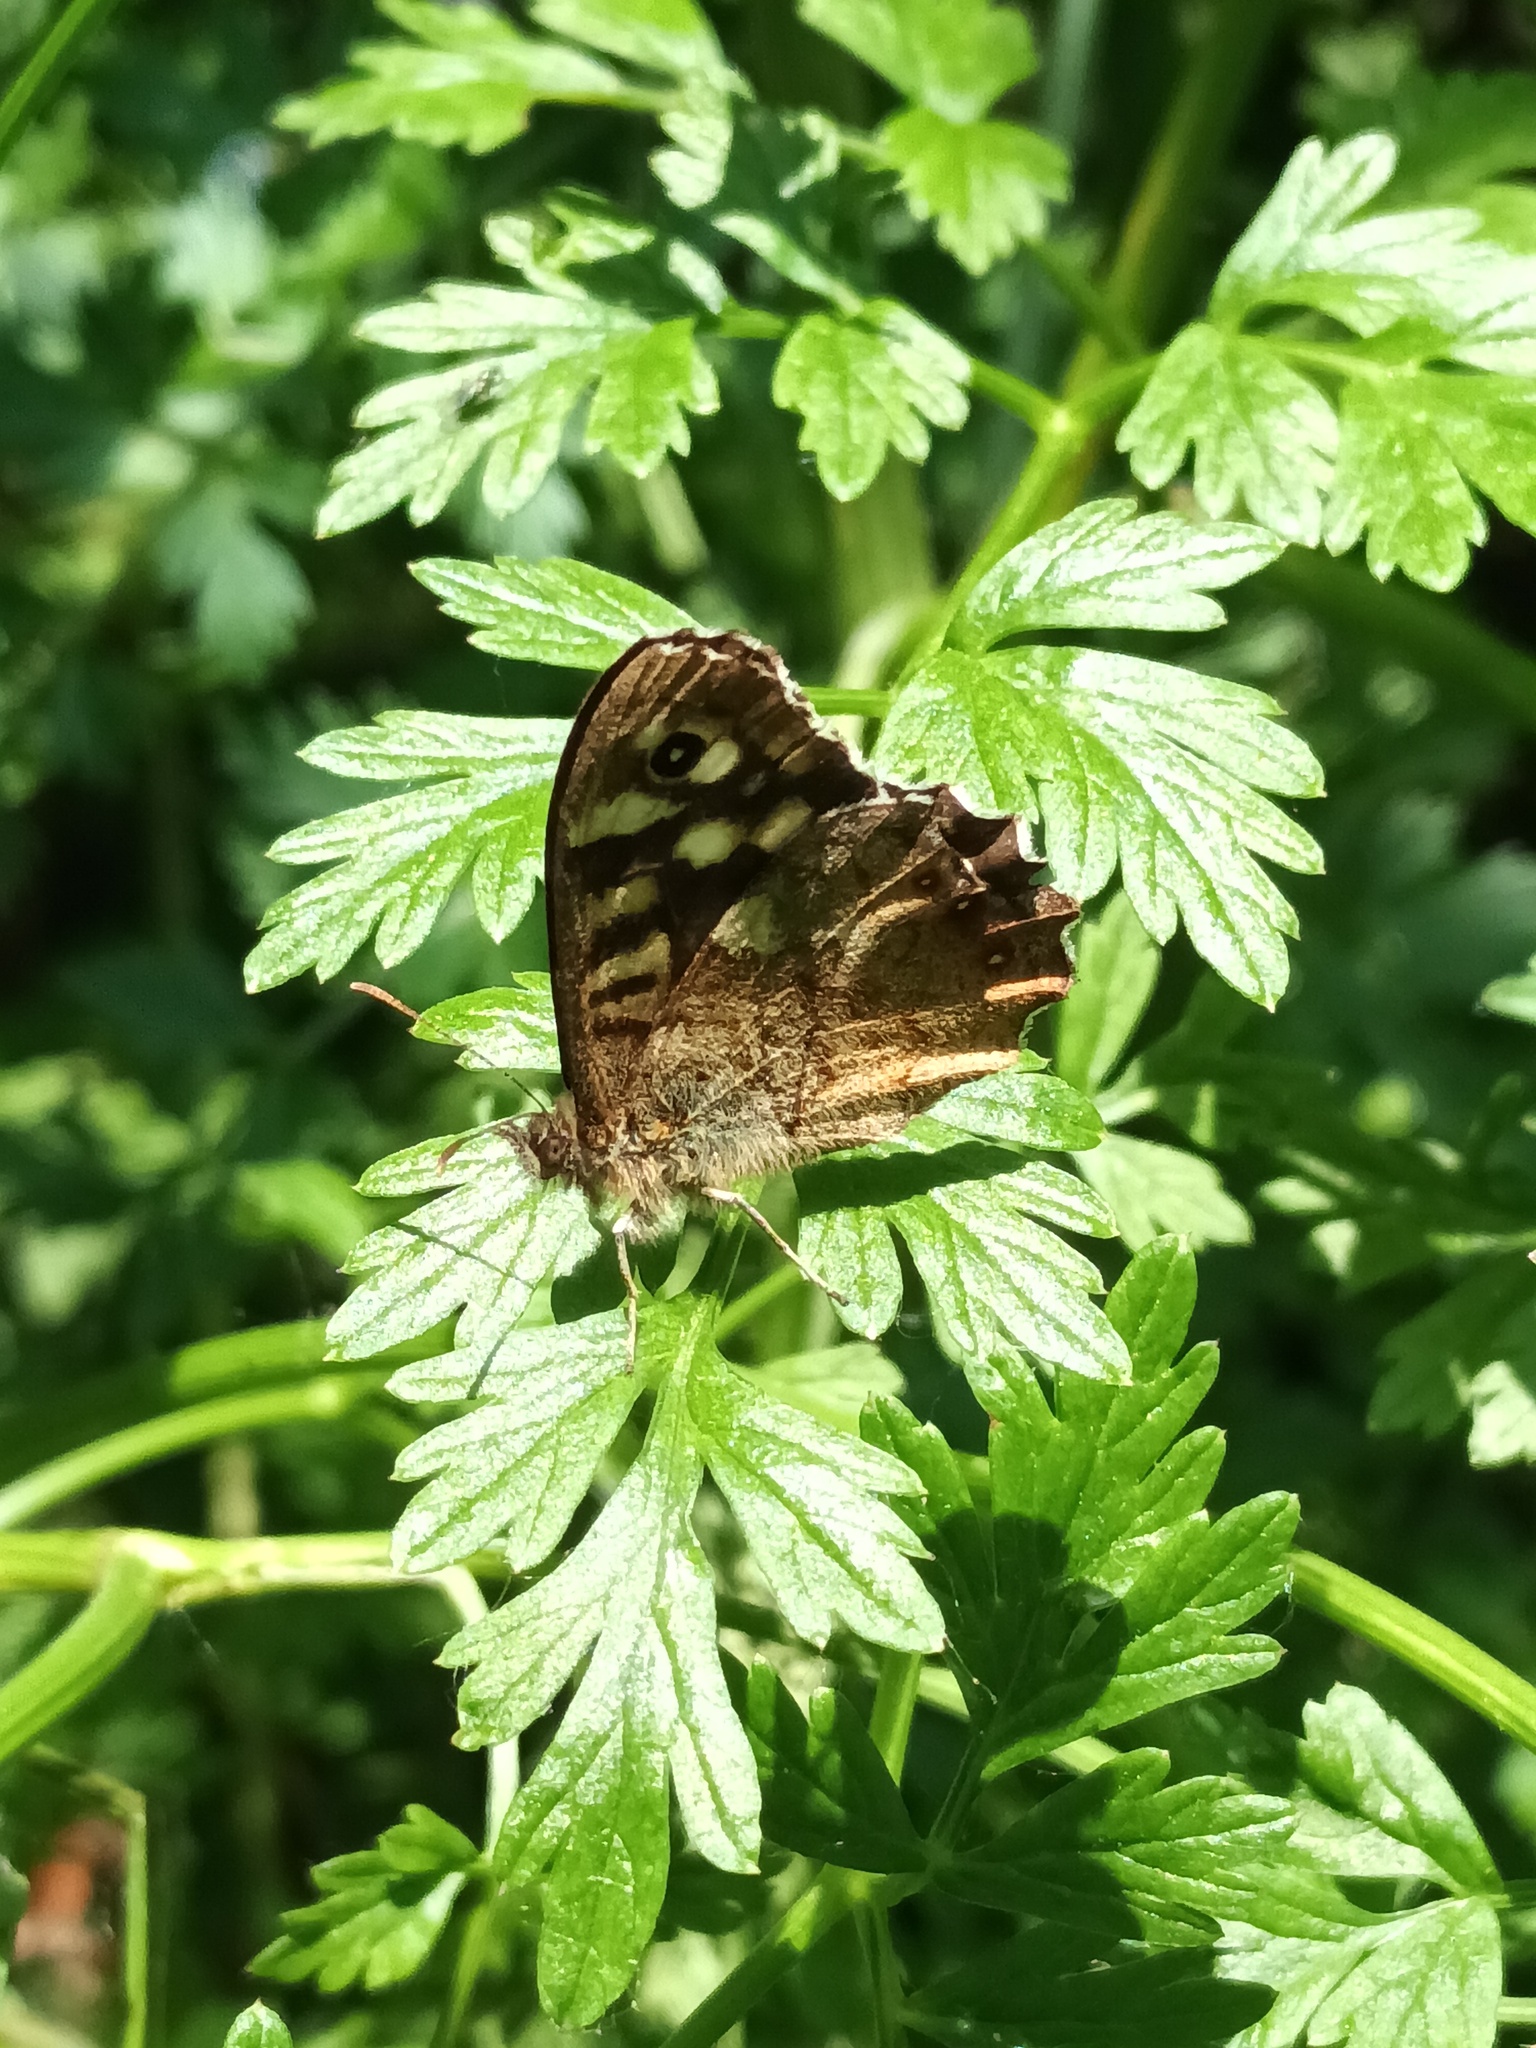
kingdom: Animalia
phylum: Arthropoda
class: Insecta
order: Lepidoptera
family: Nymphalidae
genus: Pararge
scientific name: Pararge aegeria
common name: Speckled wood
